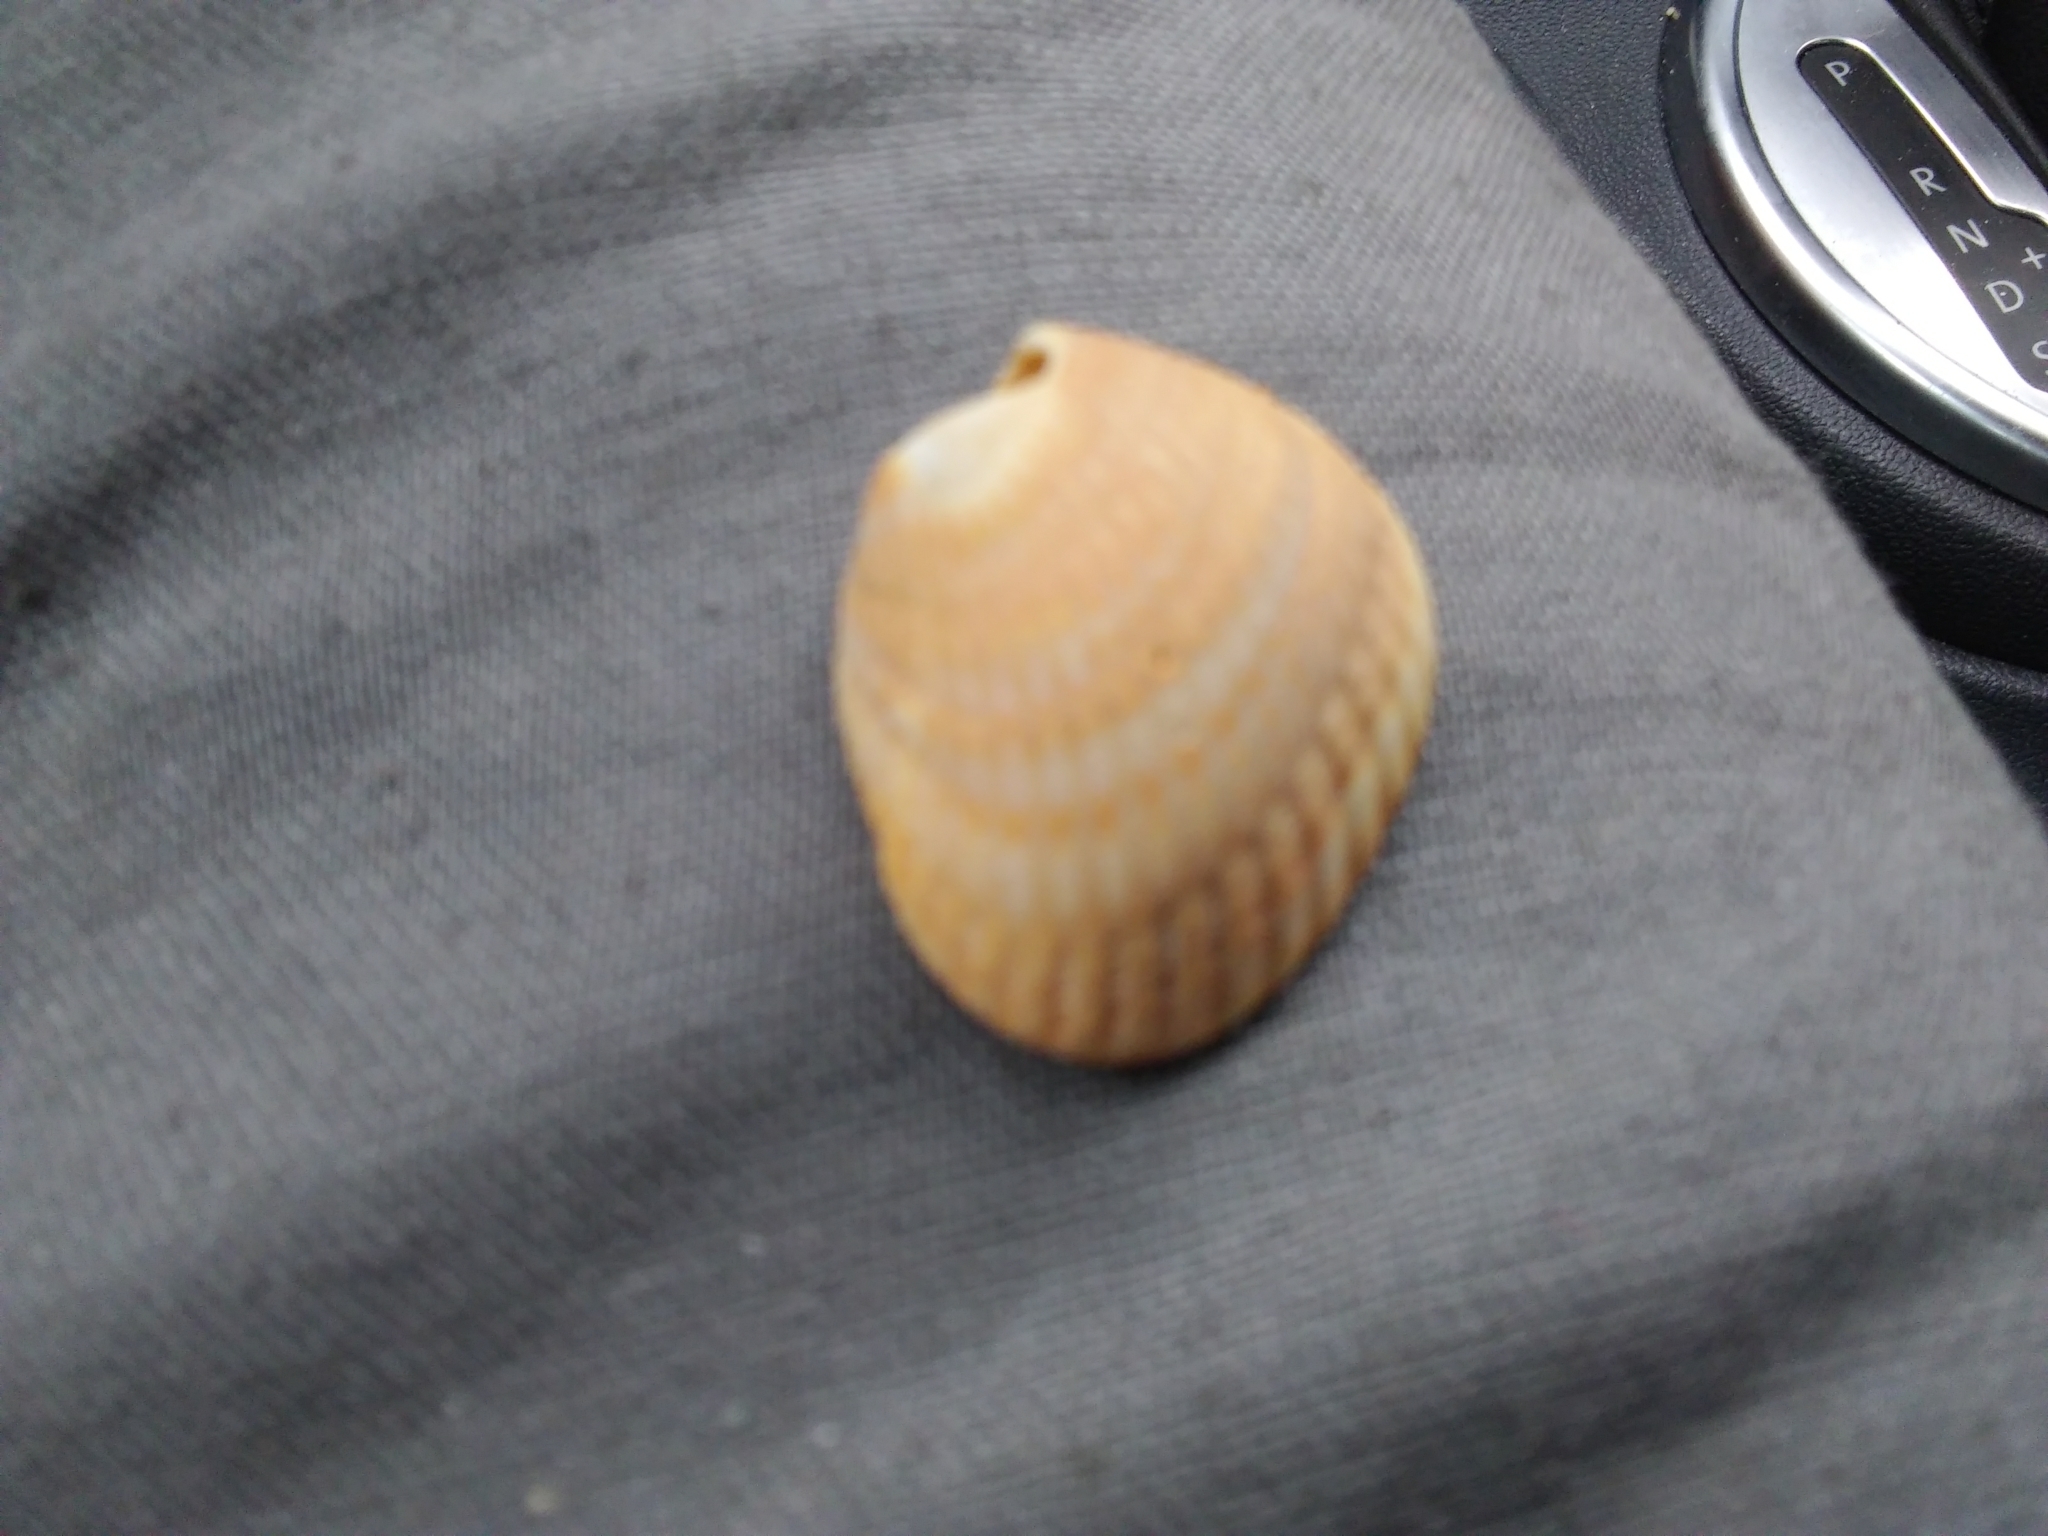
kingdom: Animalia
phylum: Mollusca
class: Bivalvia
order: Arcida
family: Noetiidae
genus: Noetia
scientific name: Noetia ponderosa
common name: Ponderous ark
